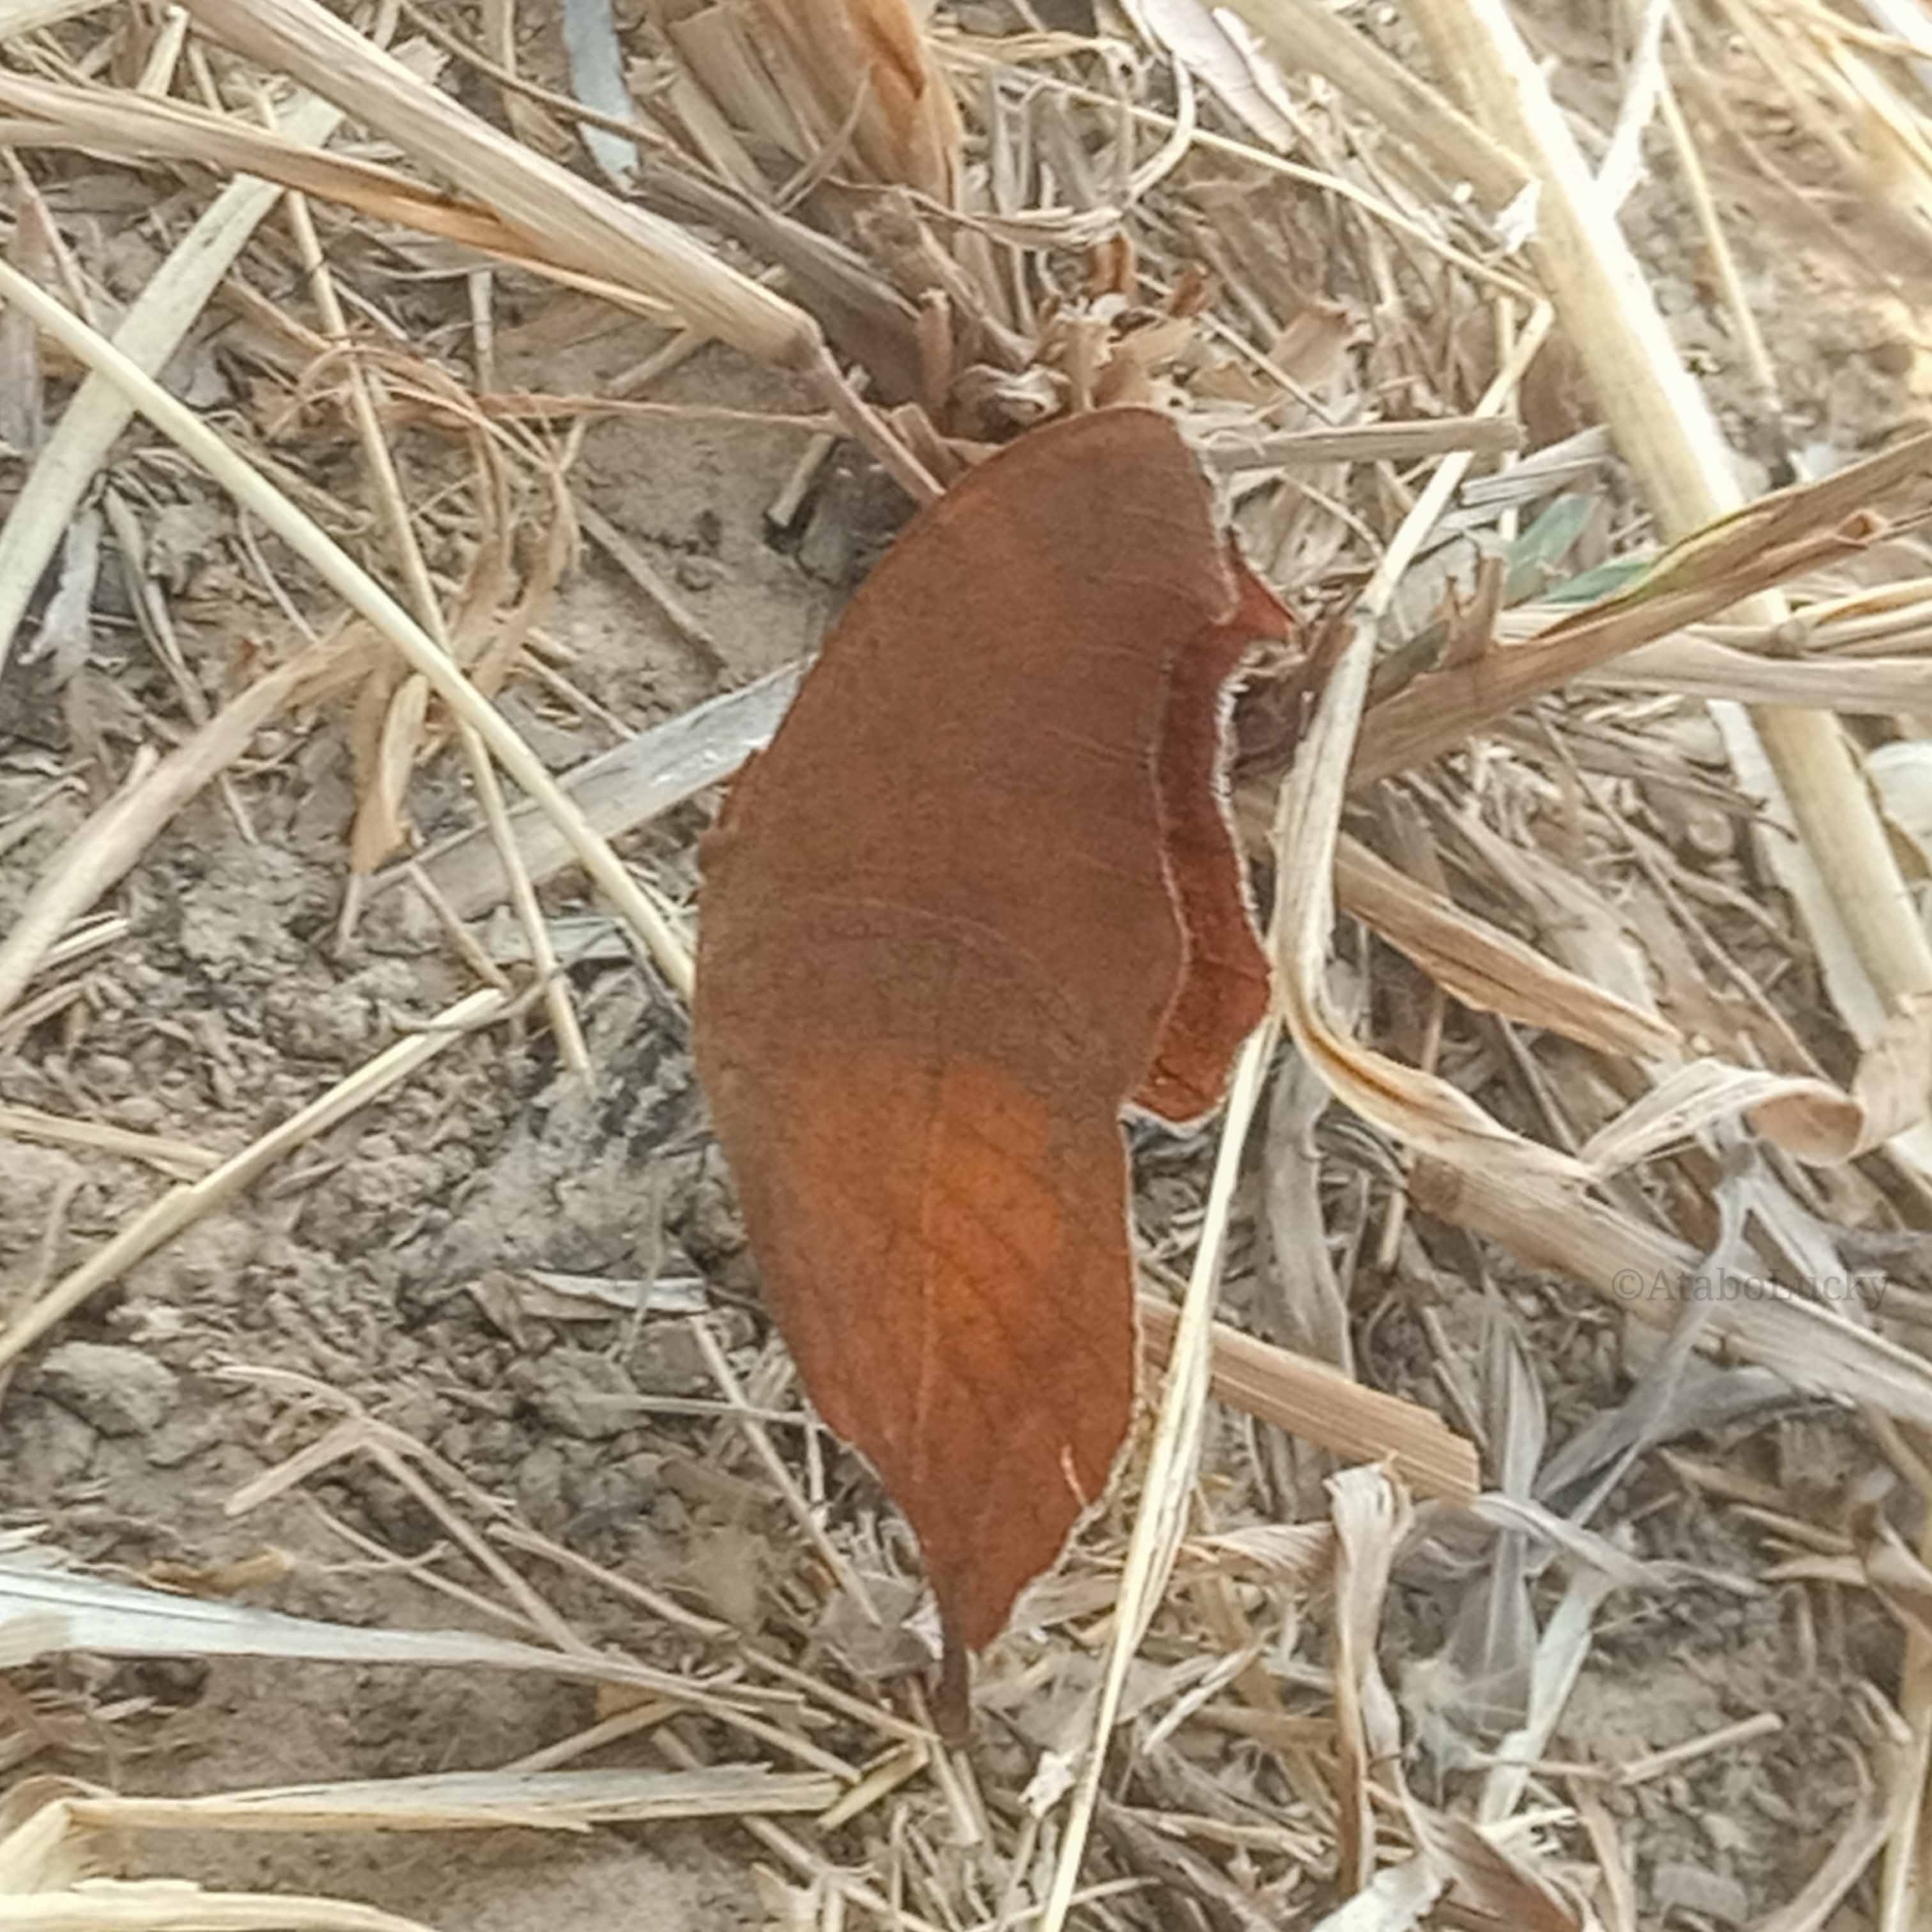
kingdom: Animalia
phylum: Arthropoda
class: Insecta
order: Lepidoptera
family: Nymphalidae
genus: Junonia
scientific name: Junonia antilope
